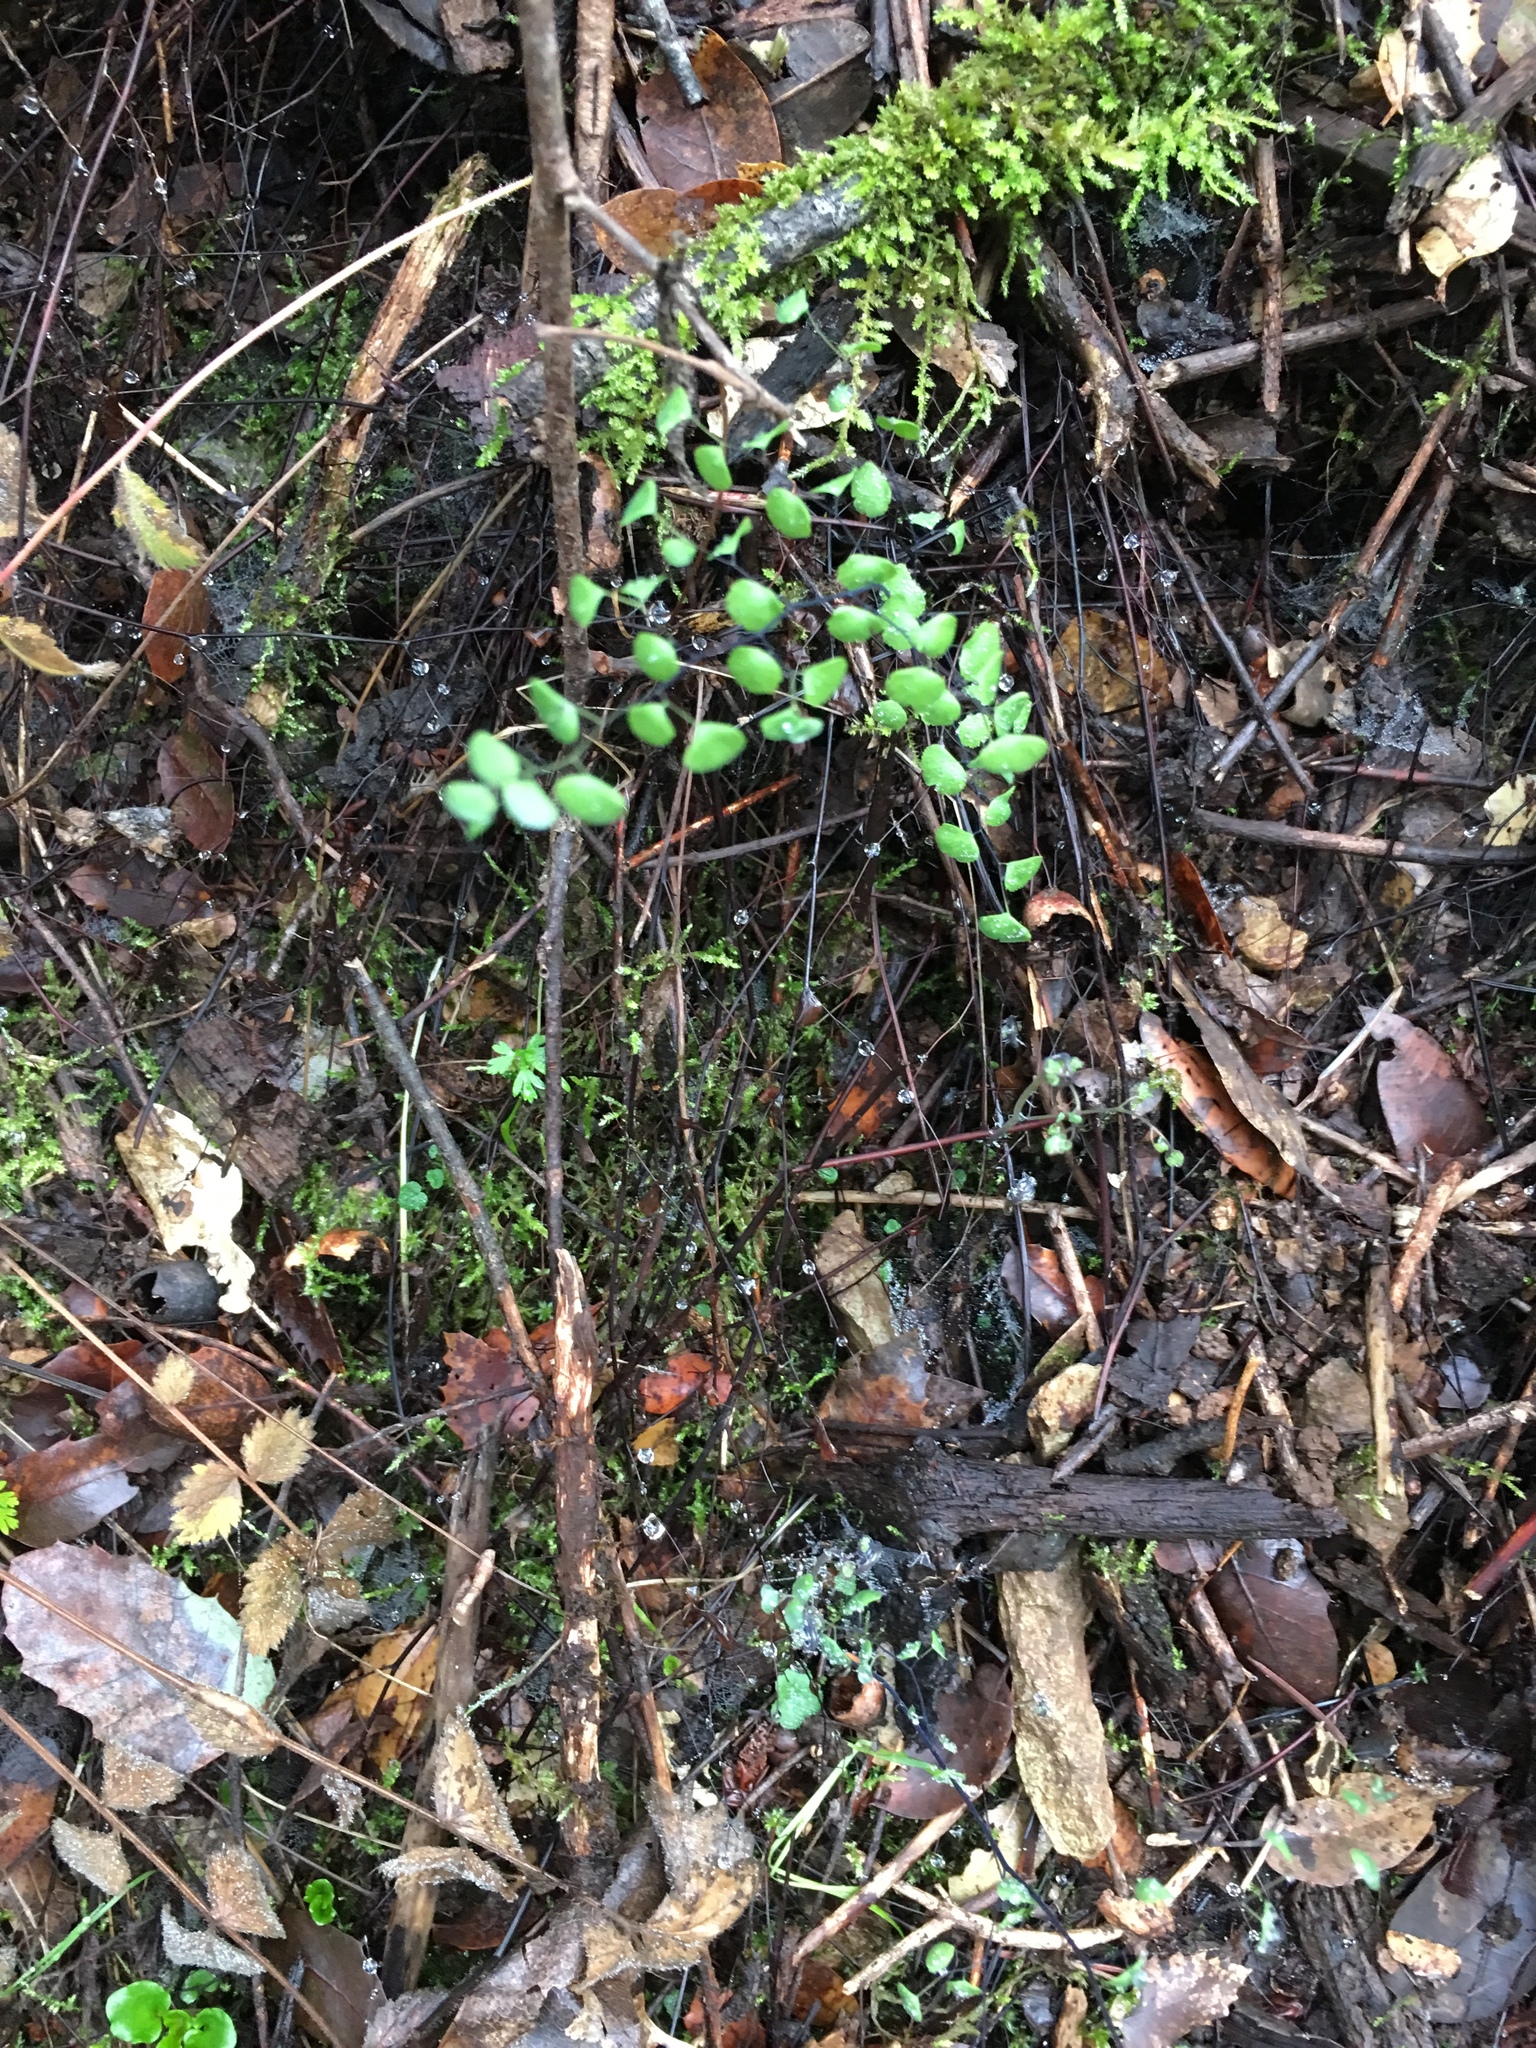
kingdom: Plantae
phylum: Tracheophyta
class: Polypodiopsida
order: Polypodiales
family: Pteridaceae
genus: Adiantum
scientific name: Adiantum jordanii
